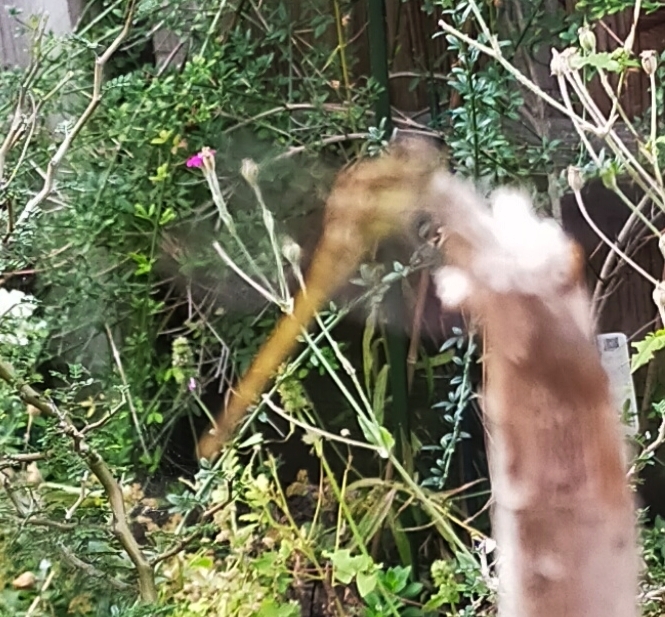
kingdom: Animalia
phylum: Arthropoda
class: Insecta
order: Odonata
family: Libellulidae
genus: Sympetrum
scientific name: Sympetrum
